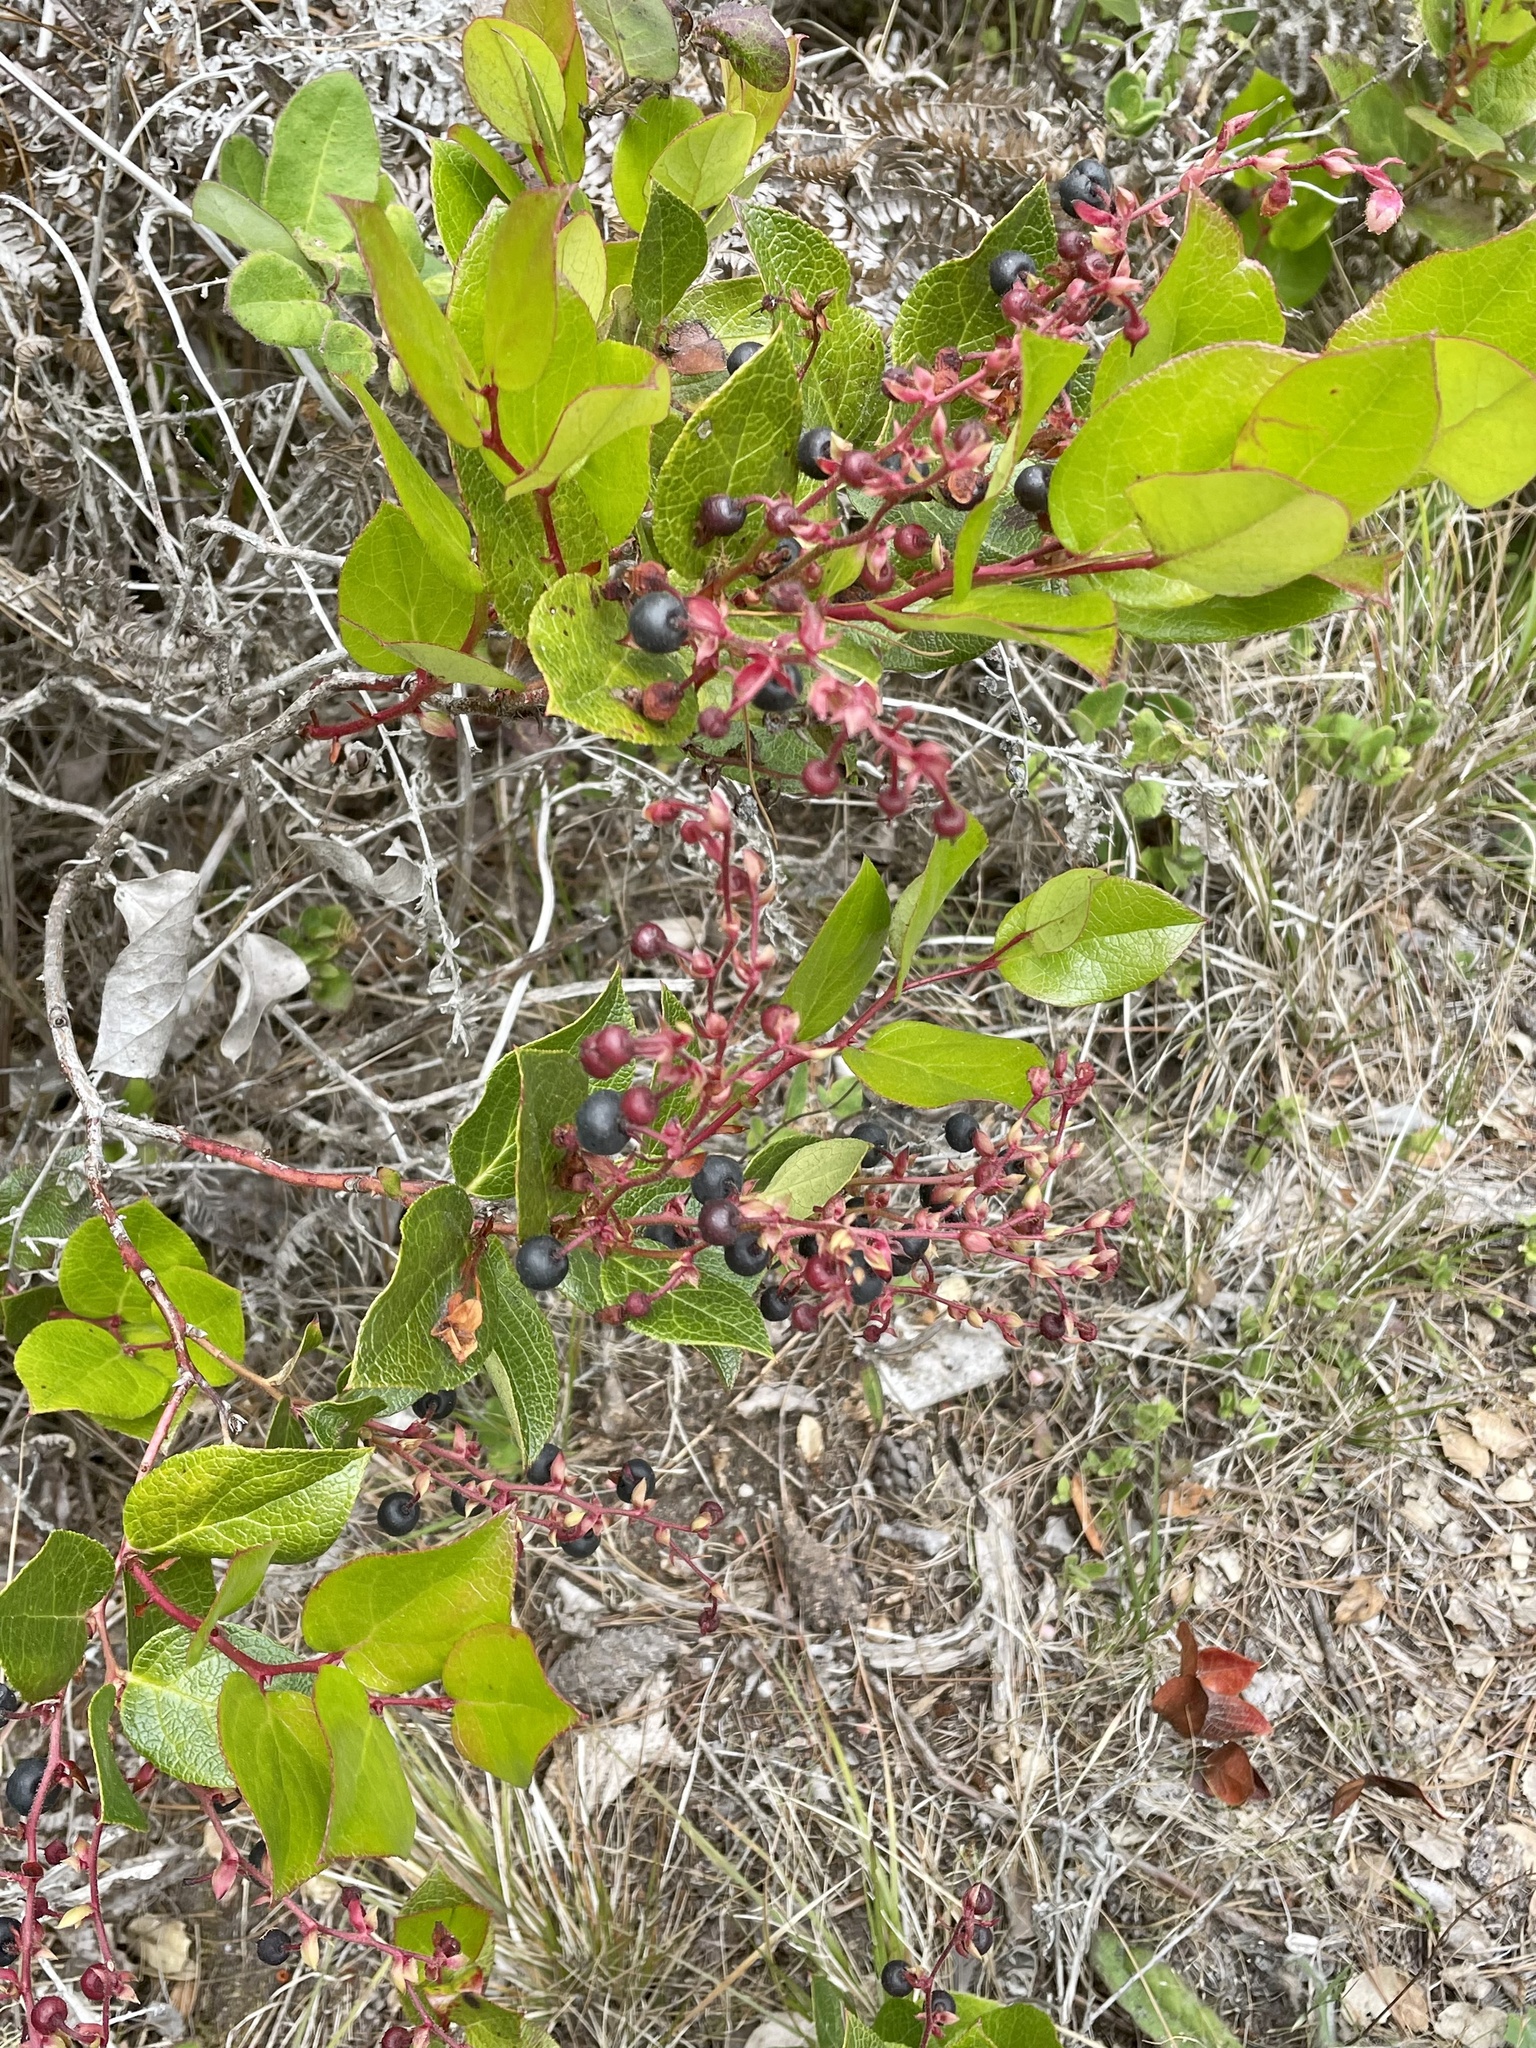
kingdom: Plantae
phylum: Tracheophyta
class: Magnoliopsida
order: Ericales
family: Ericaceae
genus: Gaultheria
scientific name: Gaultheria shallon
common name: Shallon
